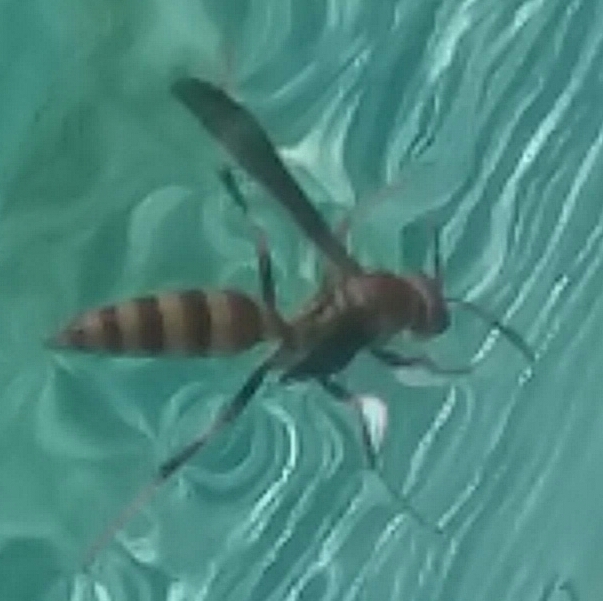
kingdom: Animalia
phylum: Arthropoda
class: Insecta
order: Hymenoptera
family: Eumenidae
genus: Polistes
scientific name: Polistes exclamans
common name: Paper wasp
